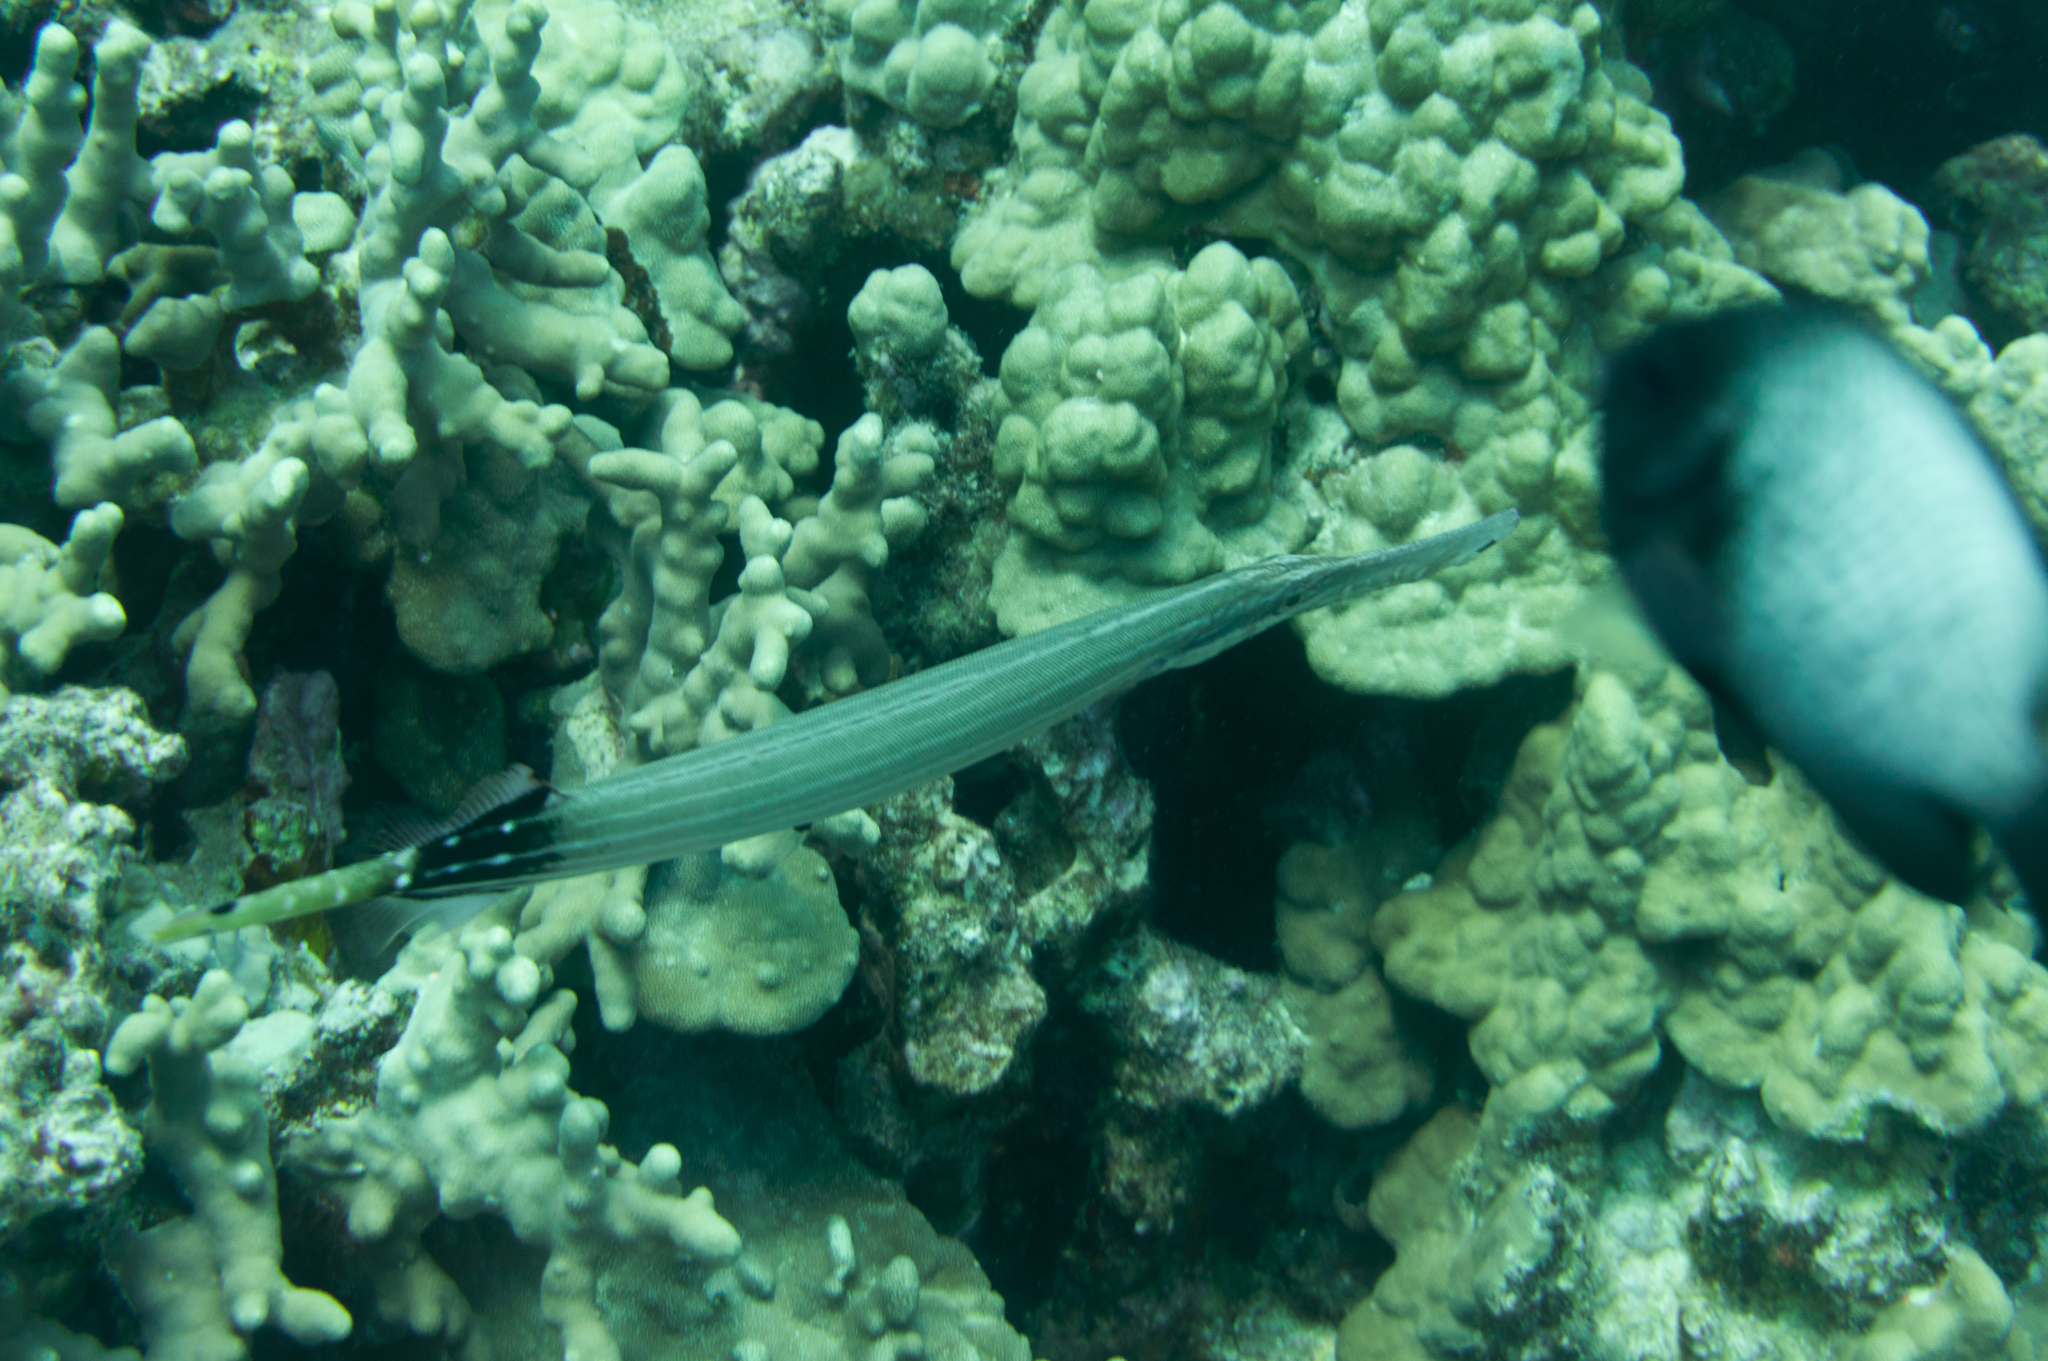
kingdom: Animalia
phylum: Chordata
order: Syngnathiformes
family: Aulostomidae
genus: Aulostomus
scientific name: Aulostomus chinensis
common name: Chinese trumpetfish
